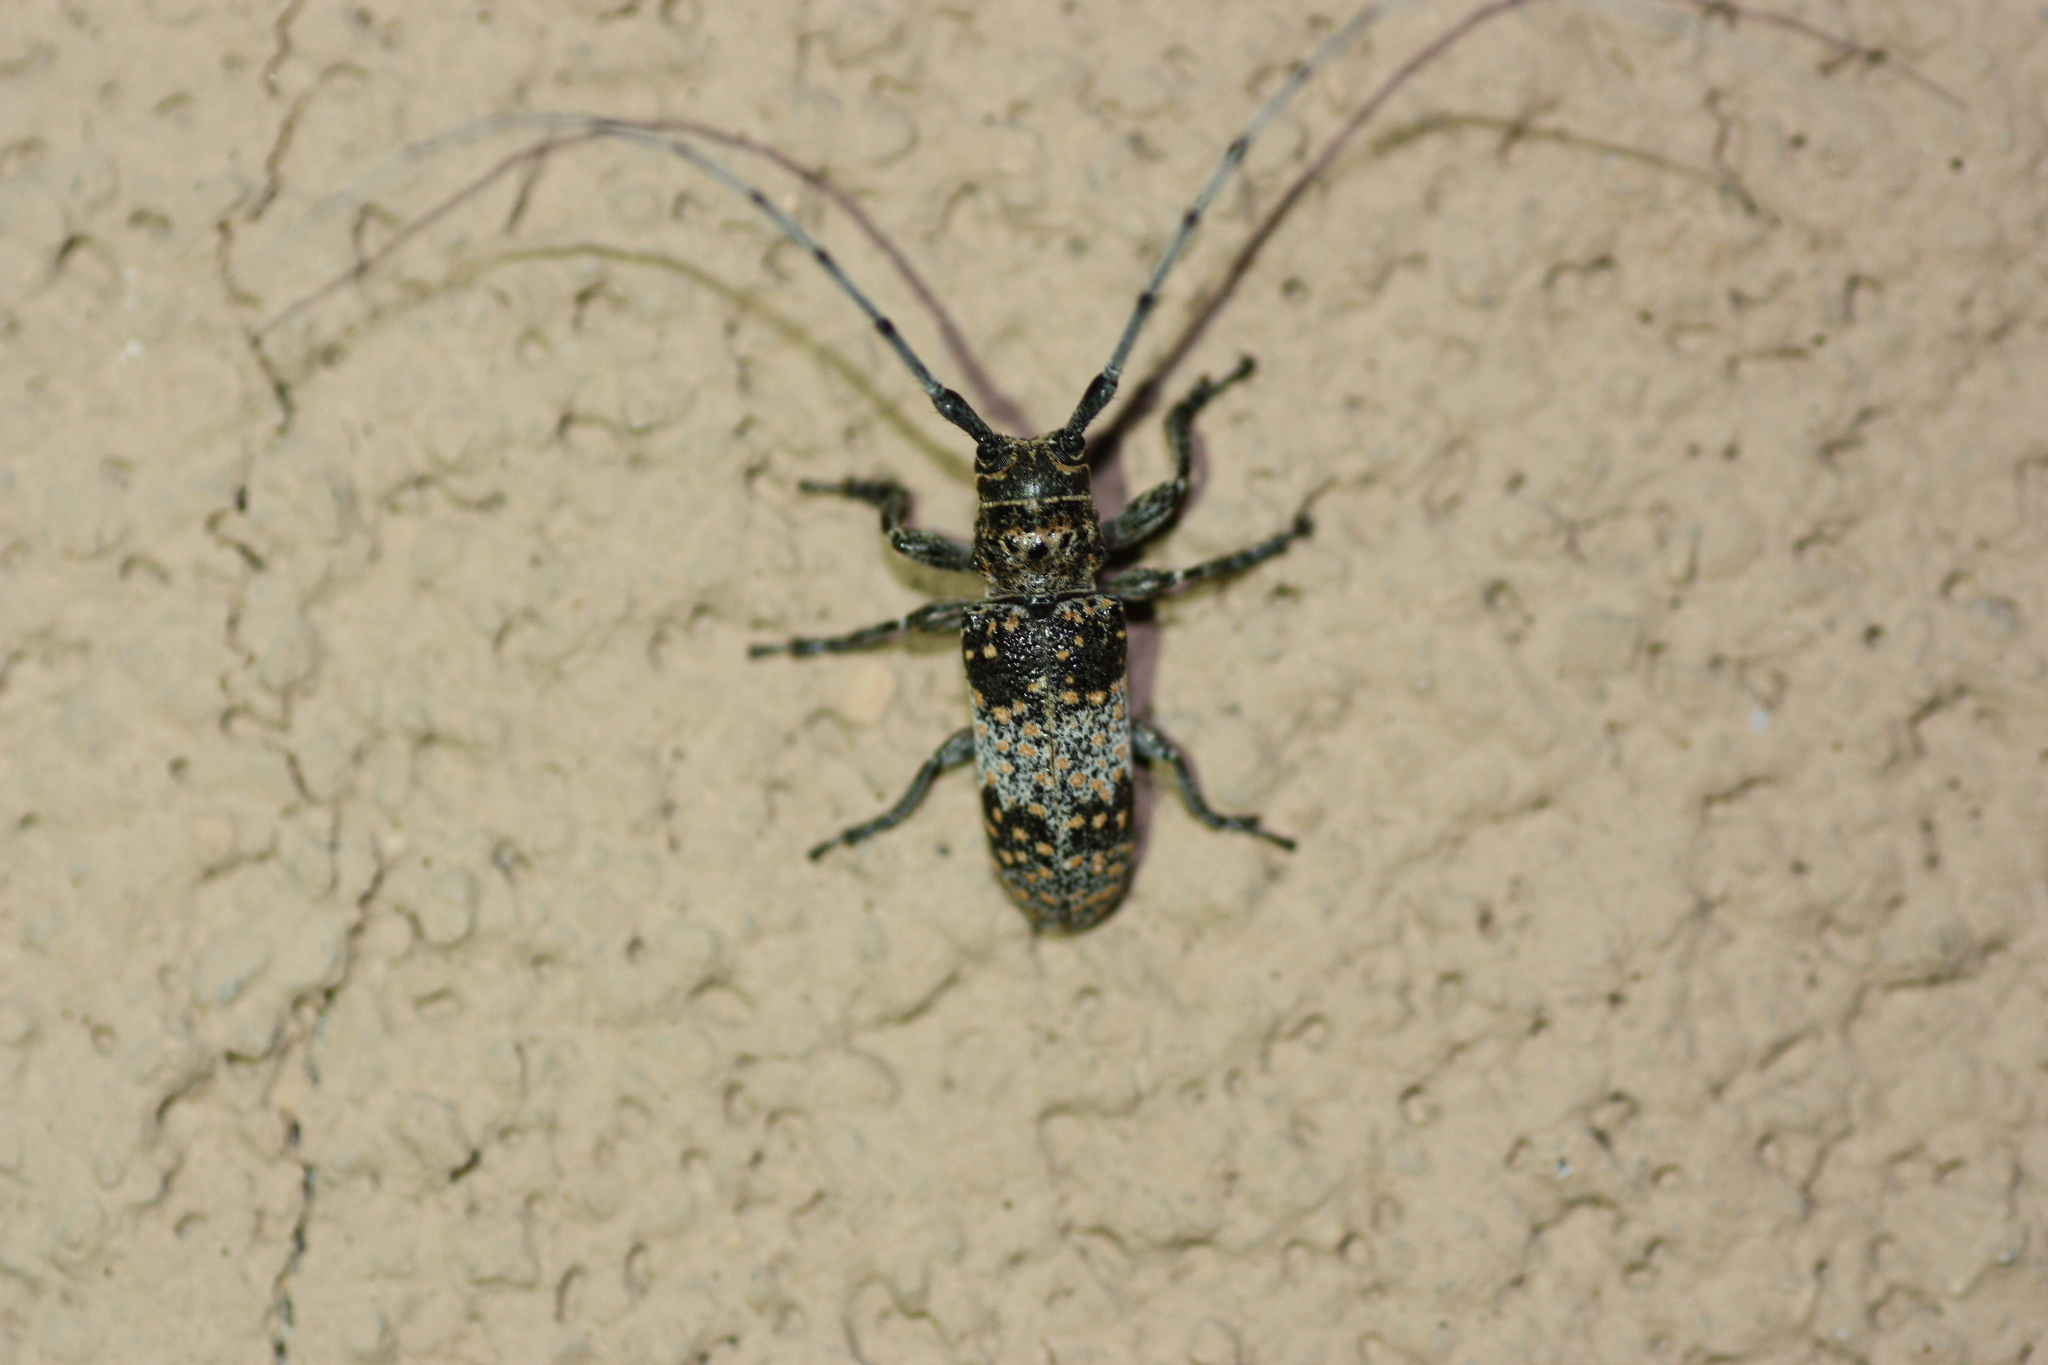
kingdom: Animalia
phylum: Arthropoda
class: Insecta
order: Coleoptera
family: Cerambycidae
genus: Oncideres
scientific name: Oncideres rhodosticta
